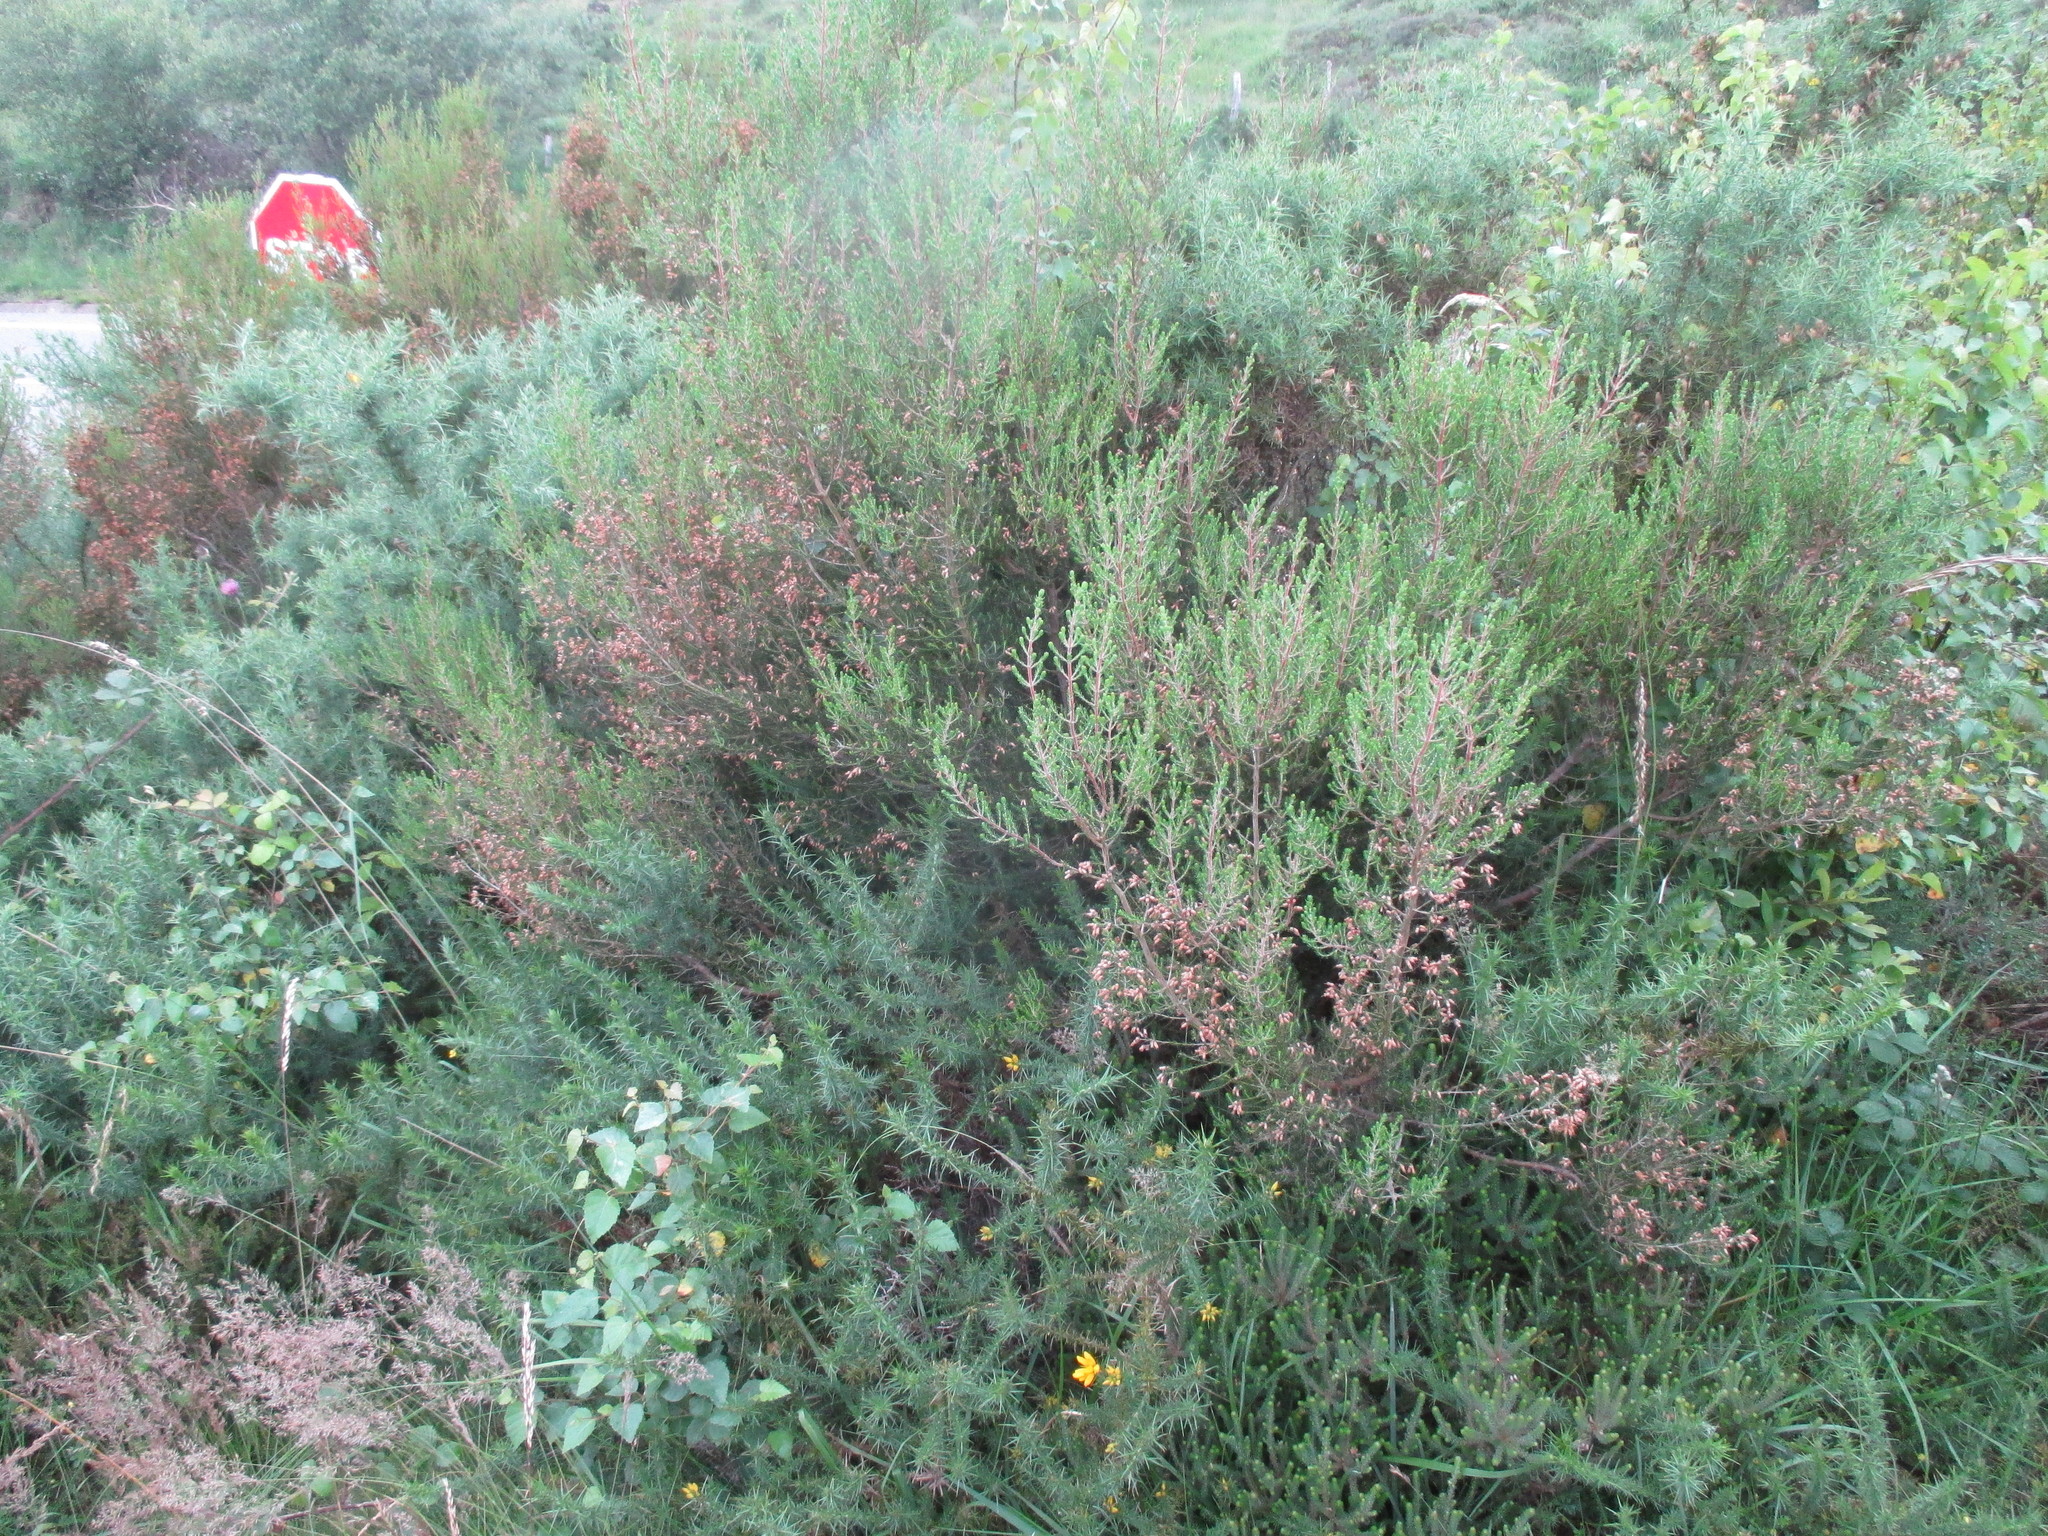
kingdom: Plantae
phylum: Tracheophyta
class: Magnoliopsida
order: Ericales
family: Ericaceae
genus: Erica
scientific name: Erica australis
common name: Spanish heath
